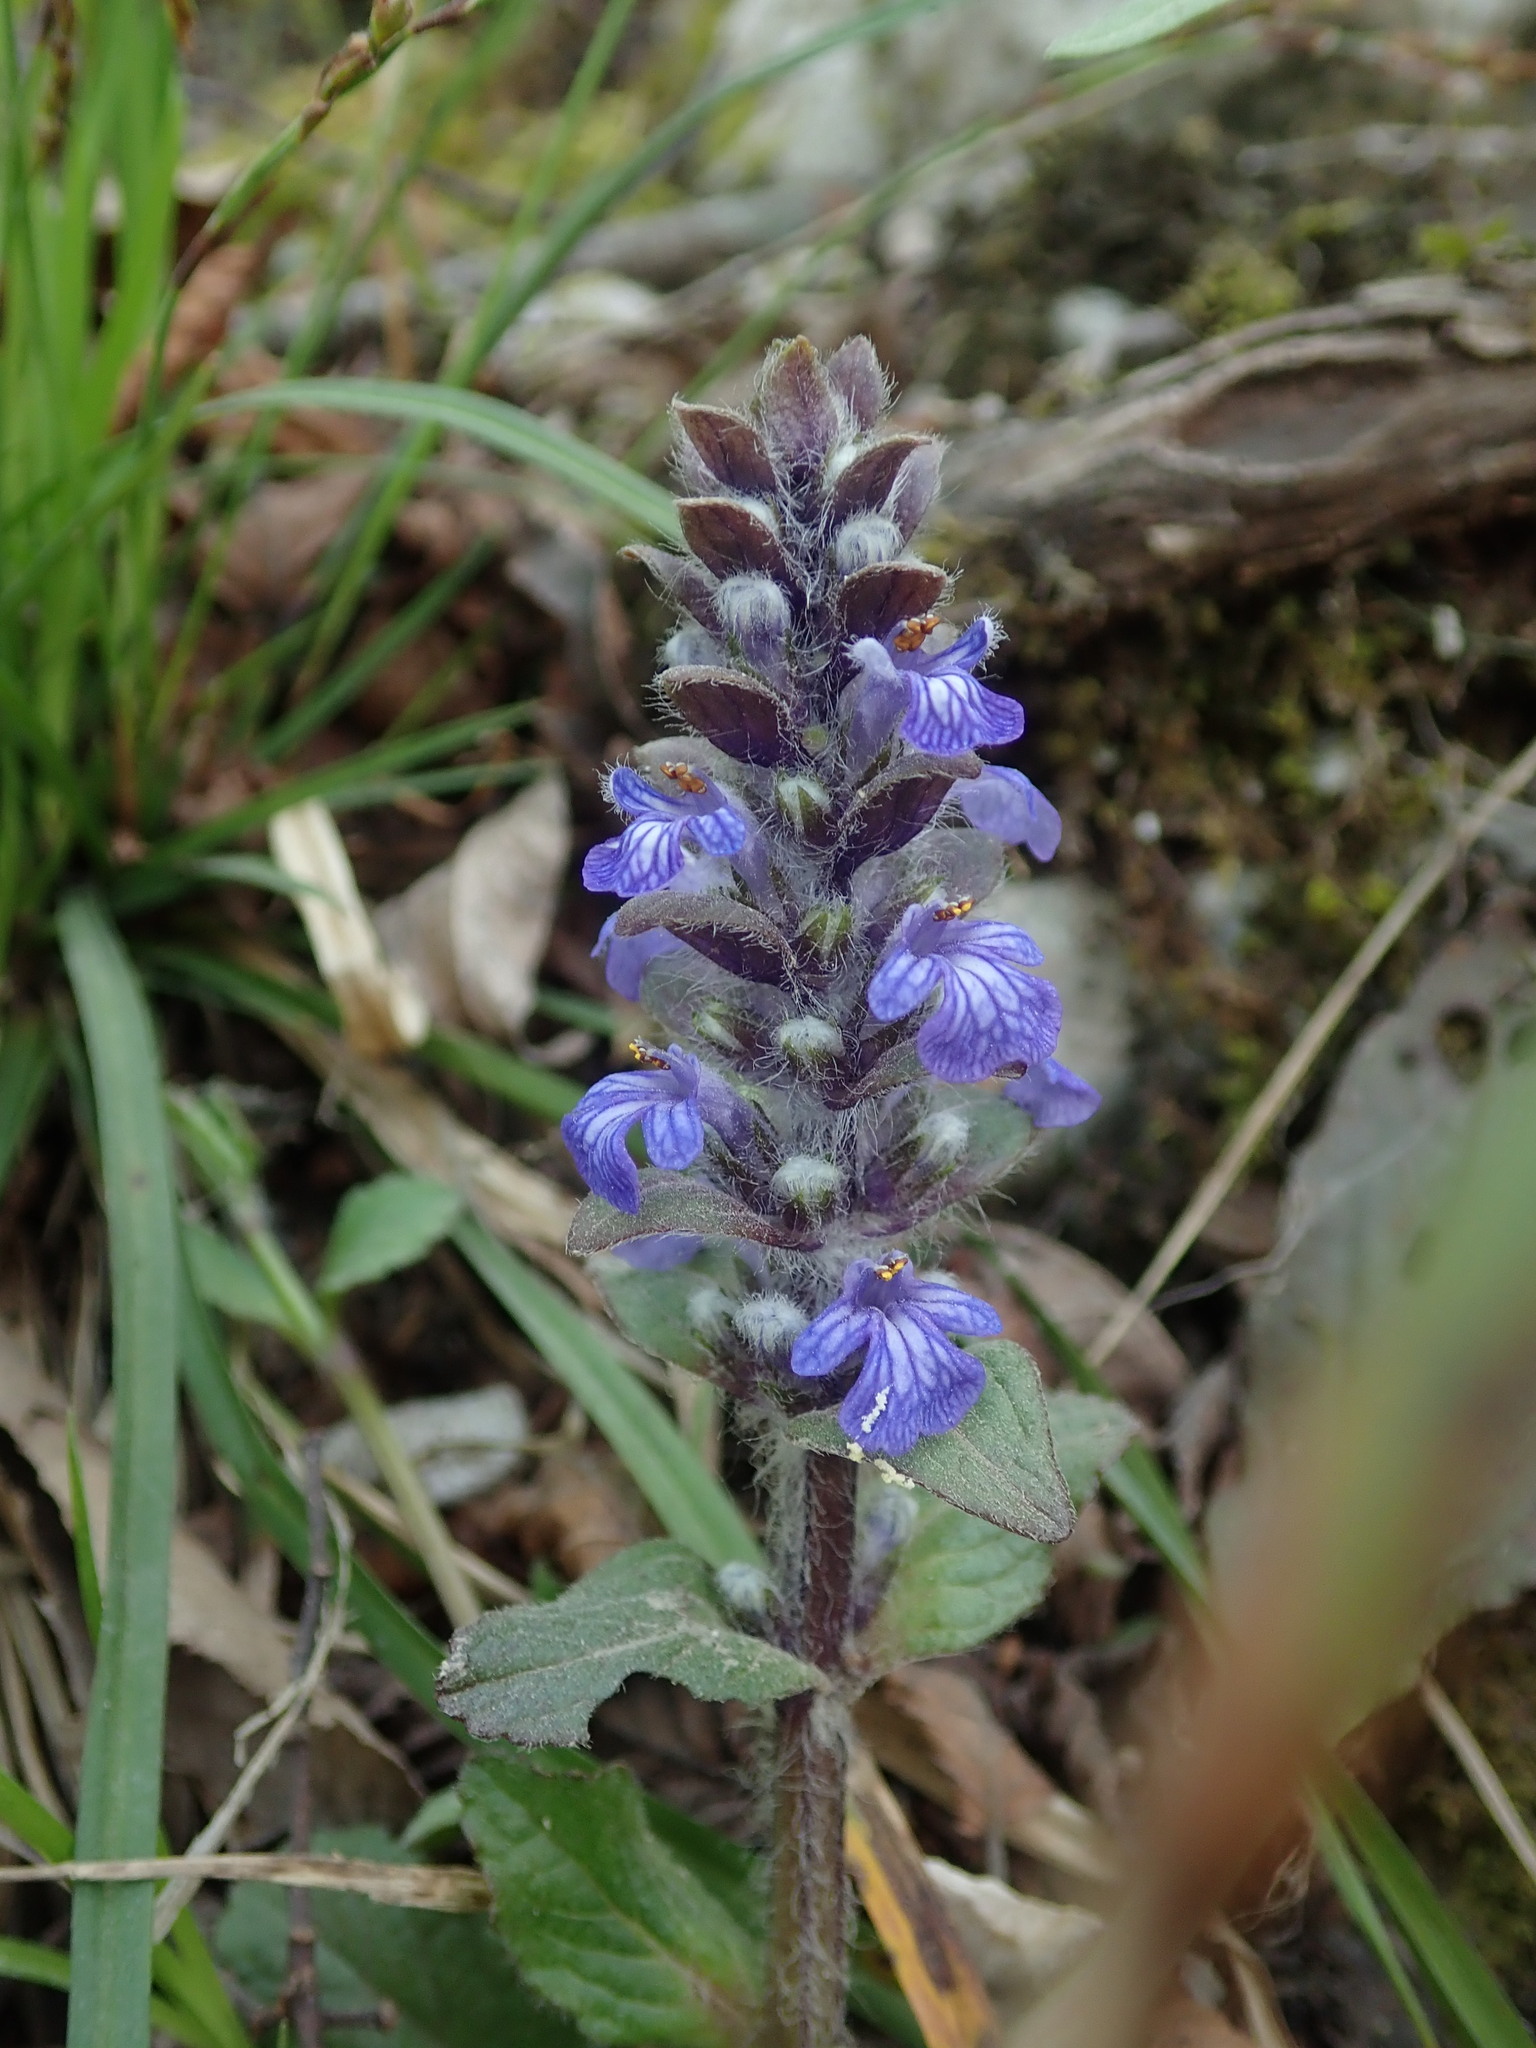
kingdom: Plantae
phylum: Tracheophyta
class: Magnoliopsida
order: Lamiales
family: Lamiaceae
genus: Ajuga
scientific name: Ajuga reptans
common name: Bugle
